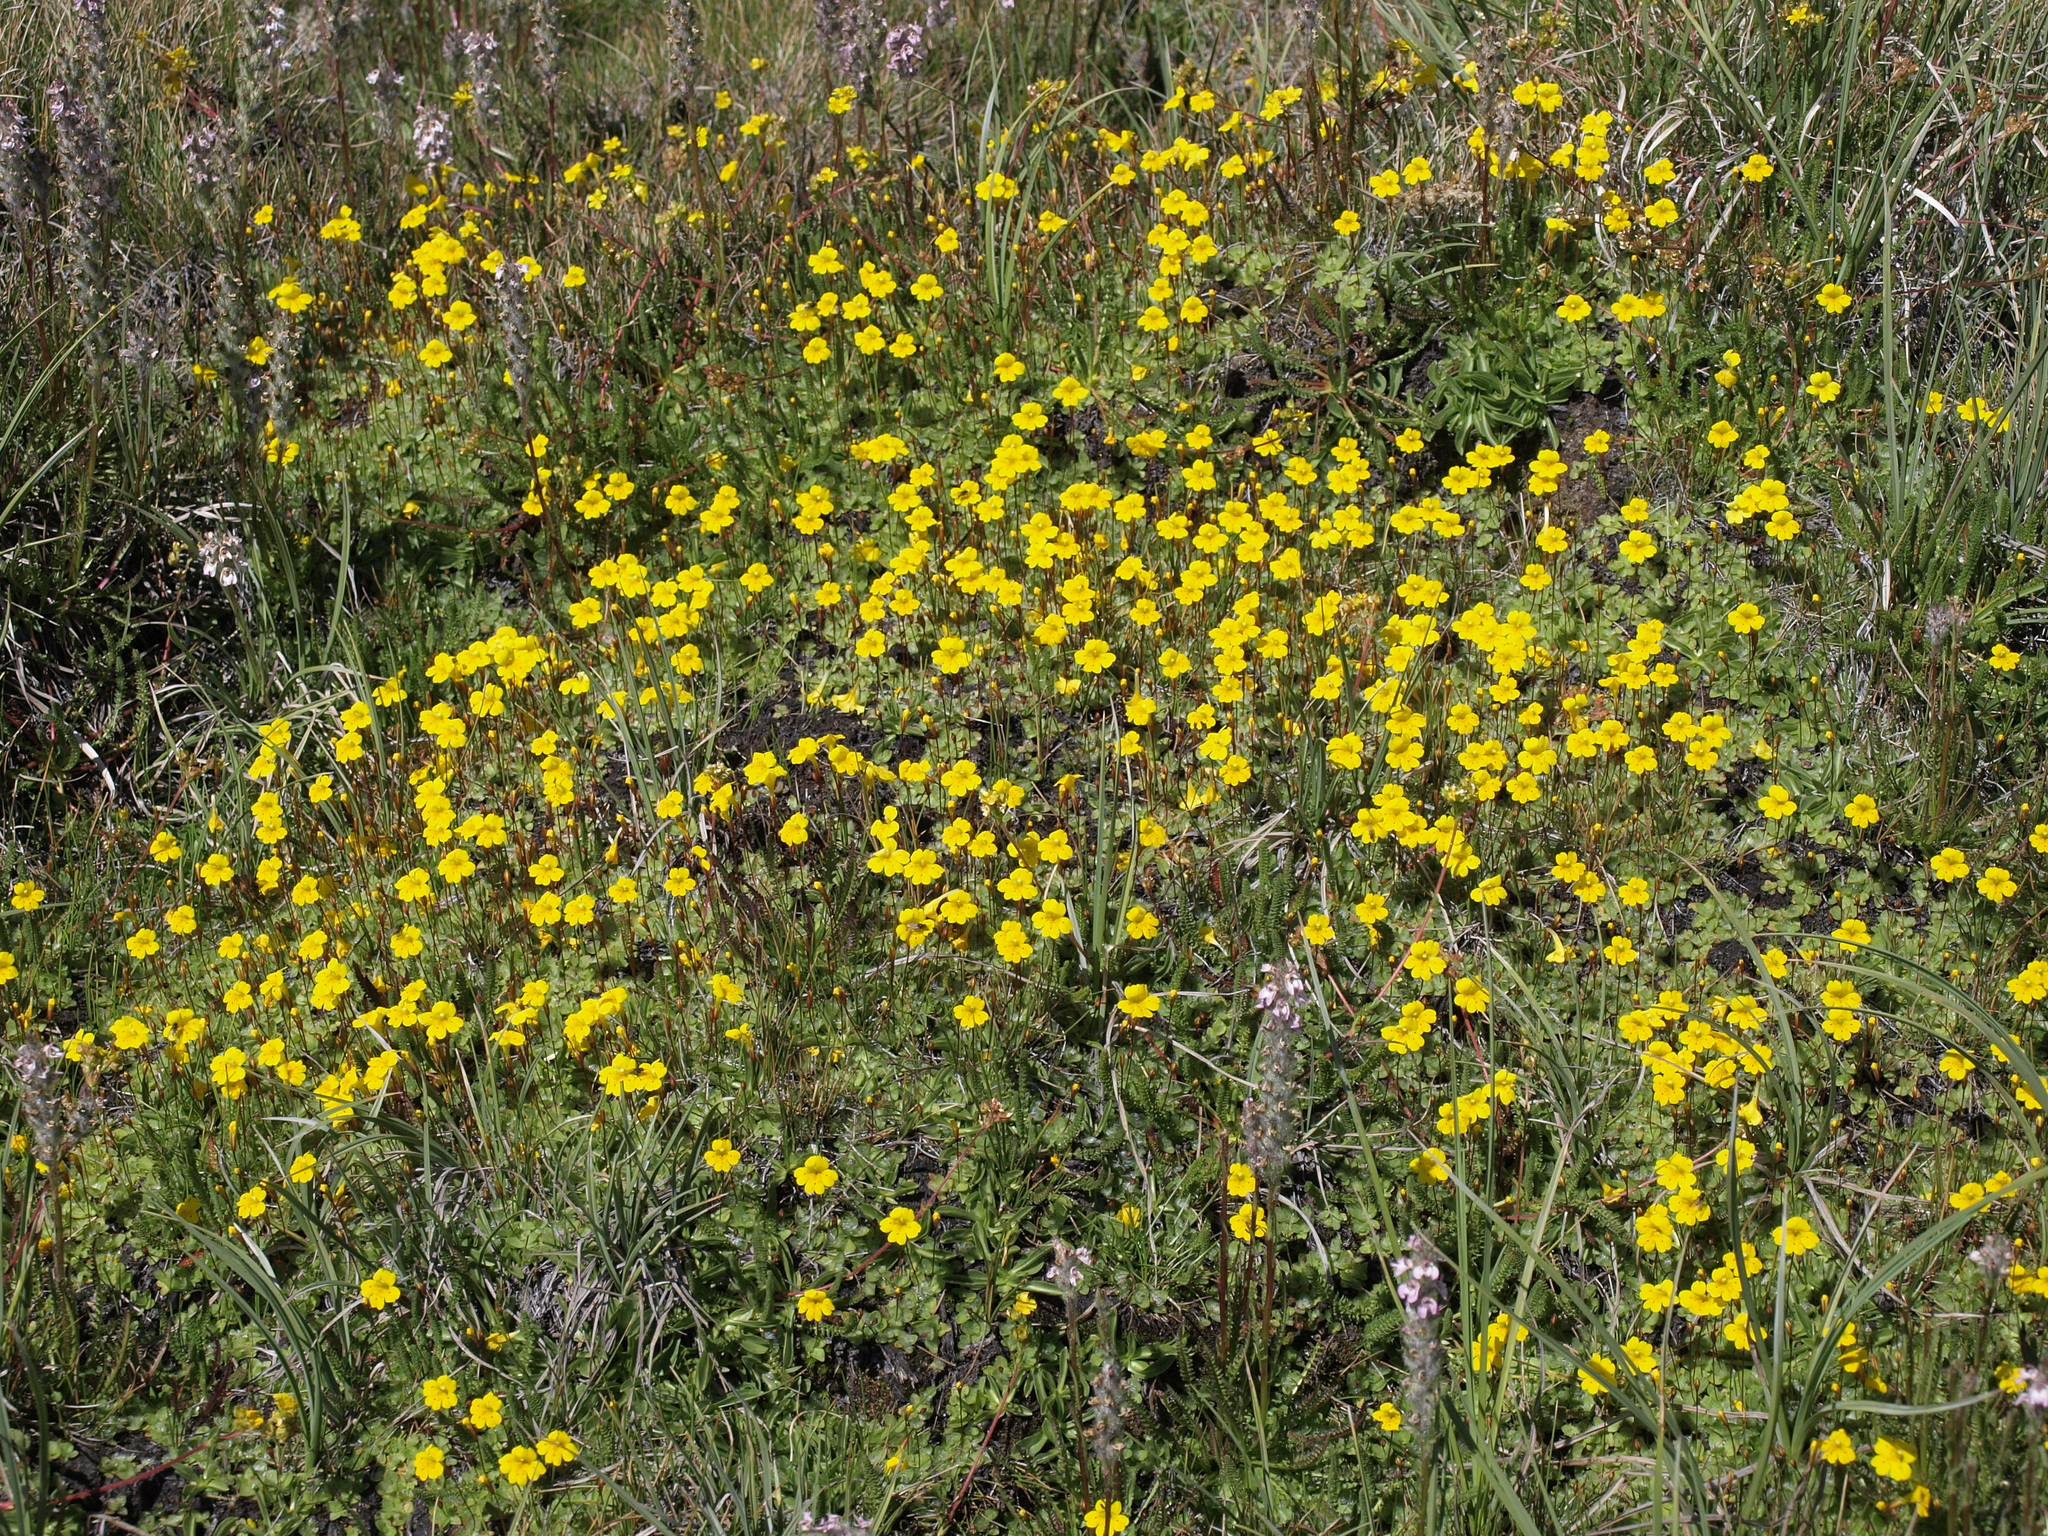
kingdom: Plantae
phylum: Tracheophyta
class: Magnoliopsida
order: Lamiales
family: Phrymaceae
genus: Erythranthe
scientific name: Erythranthe primuloides
